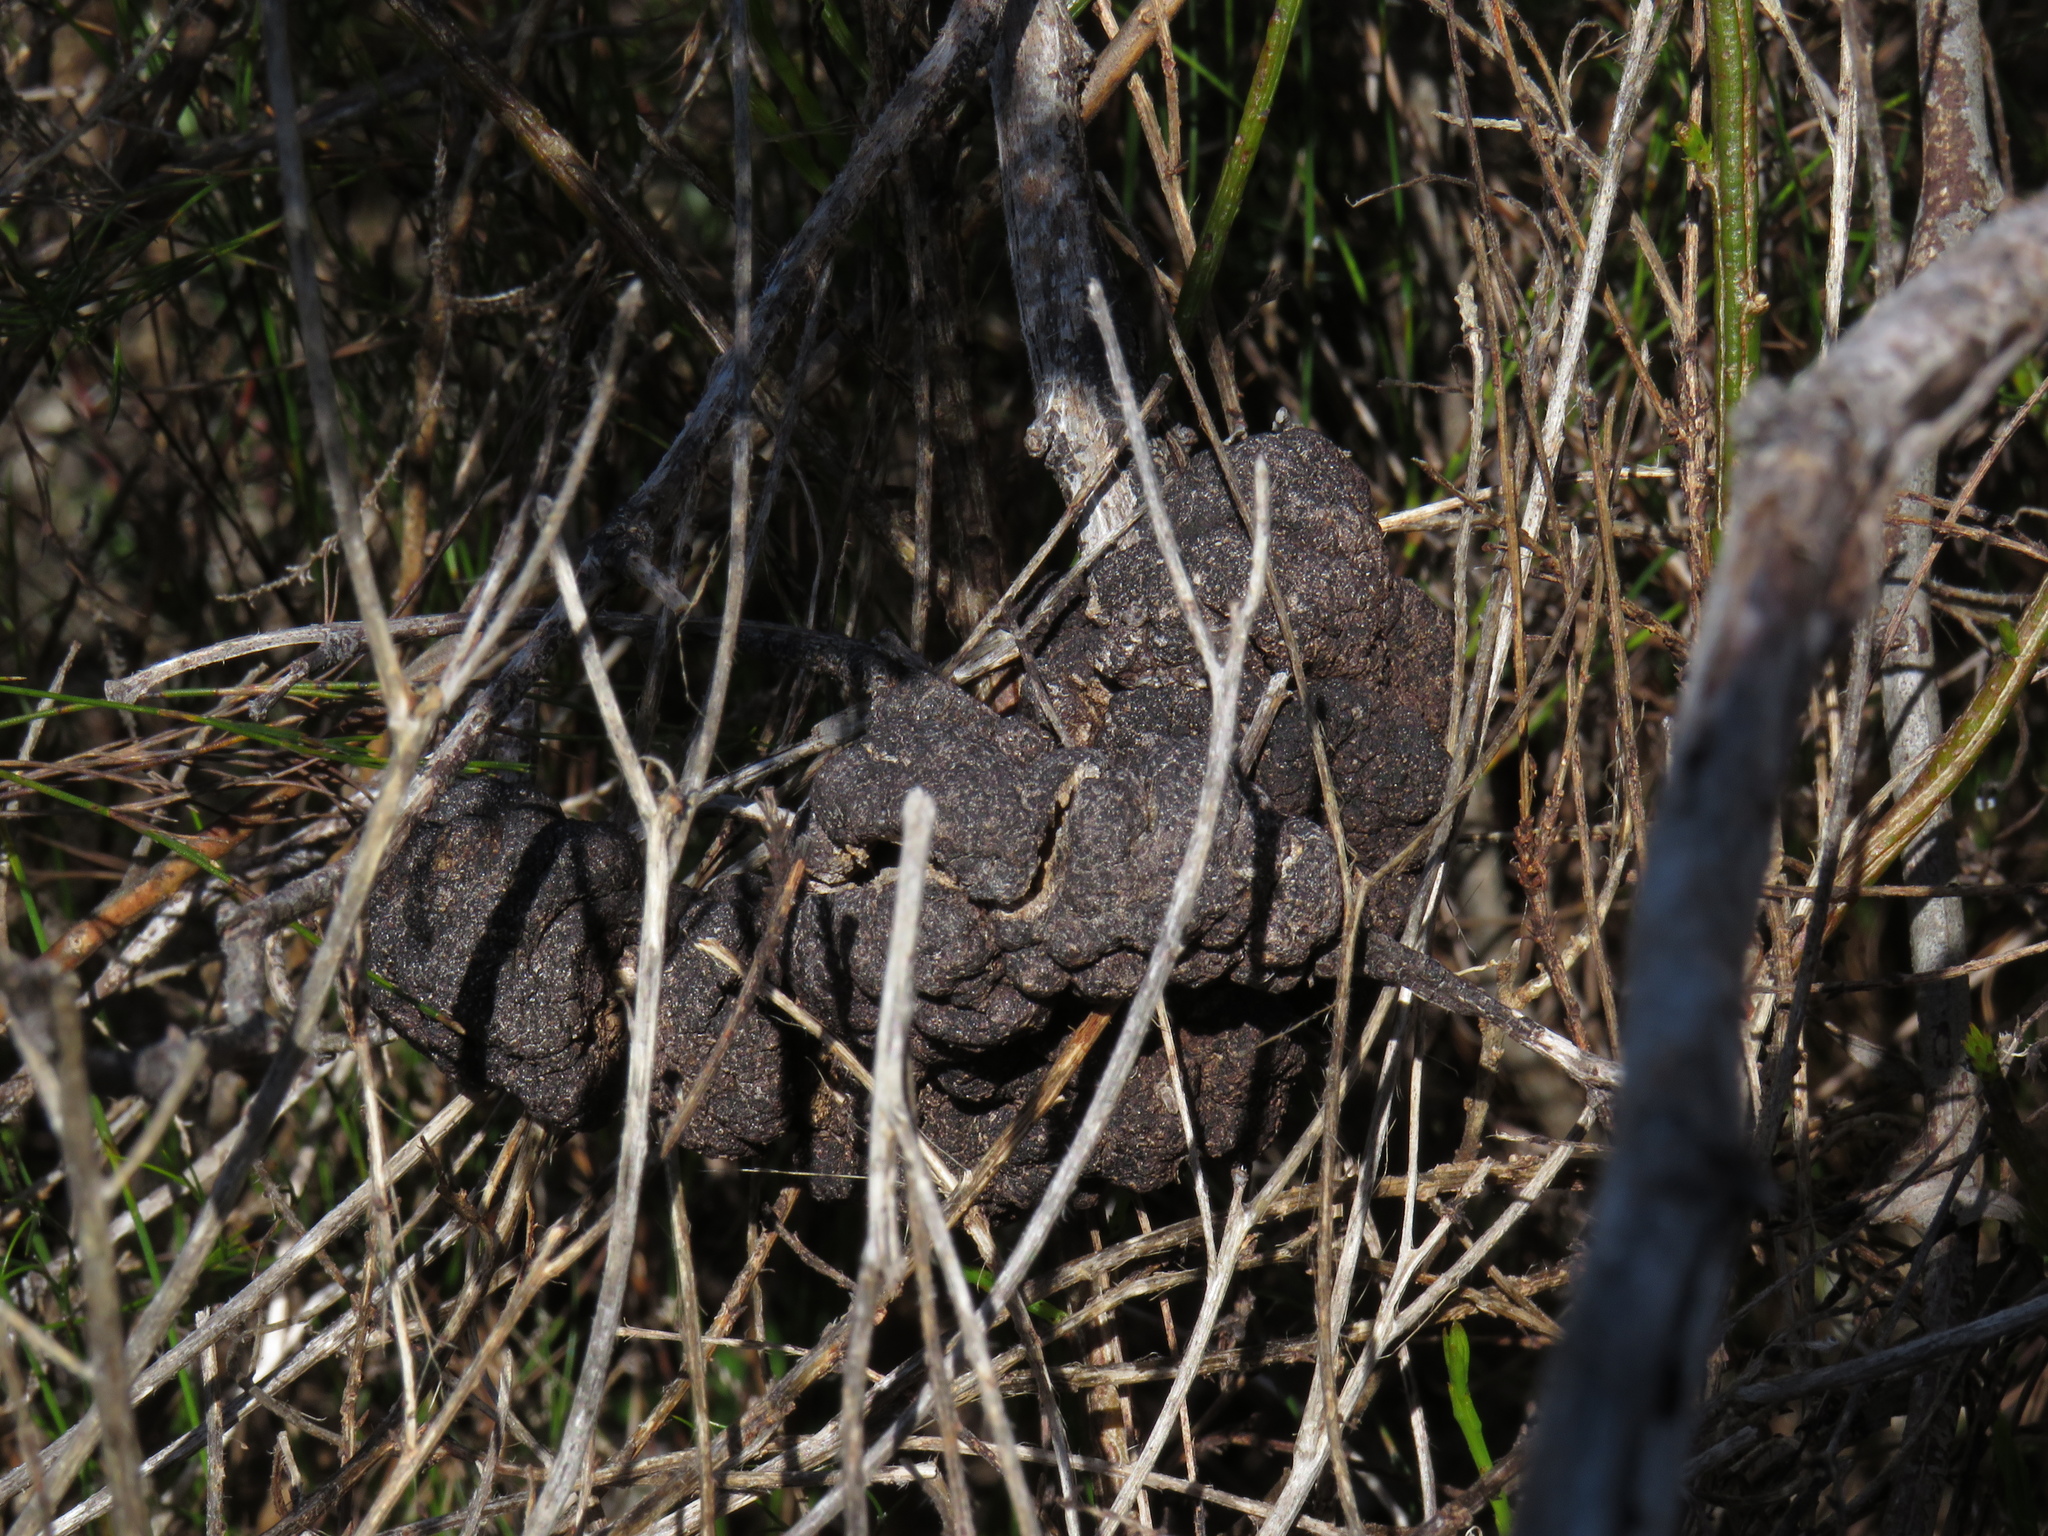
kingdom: Fungi
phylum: Basidiomycota
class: Pucciniomycetes
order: Pucciniales
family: Uromycladiaceae
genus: Uromycladium
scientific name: Uromycladium morrisii
